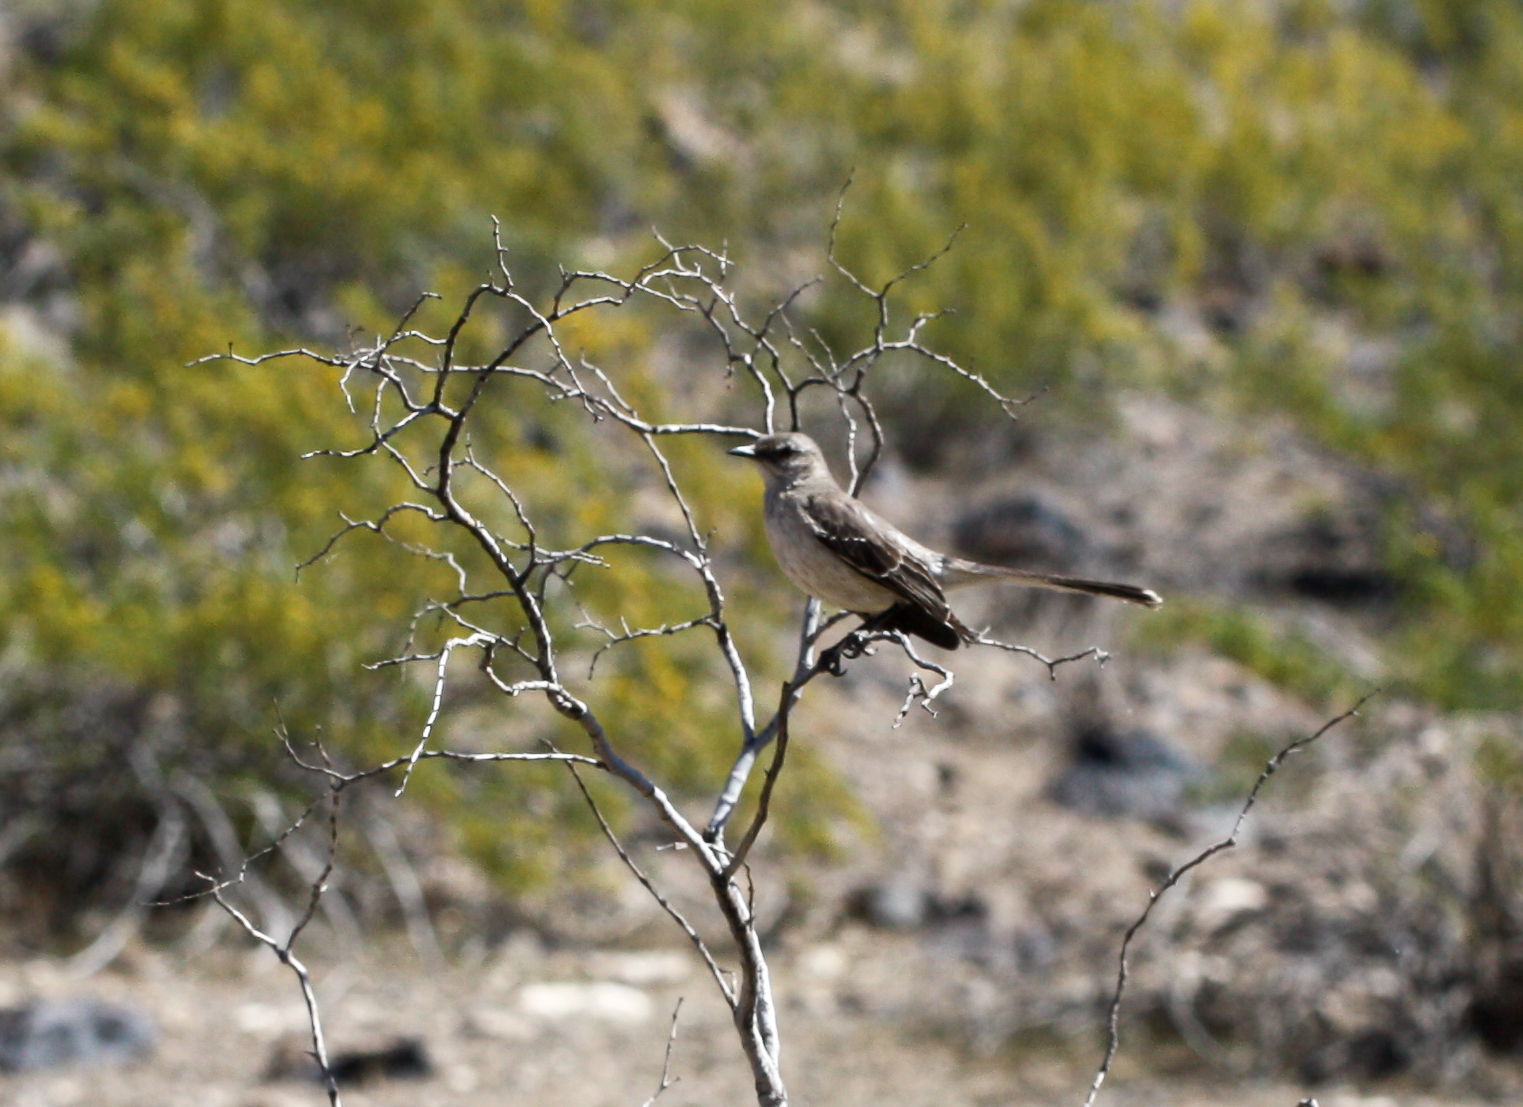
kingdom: Animalia
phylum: Chordata
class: Aves
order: Passeriformes
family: Mimidae
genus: Mimus
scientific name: Mimus polyglottos
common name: Northern mockingbird
